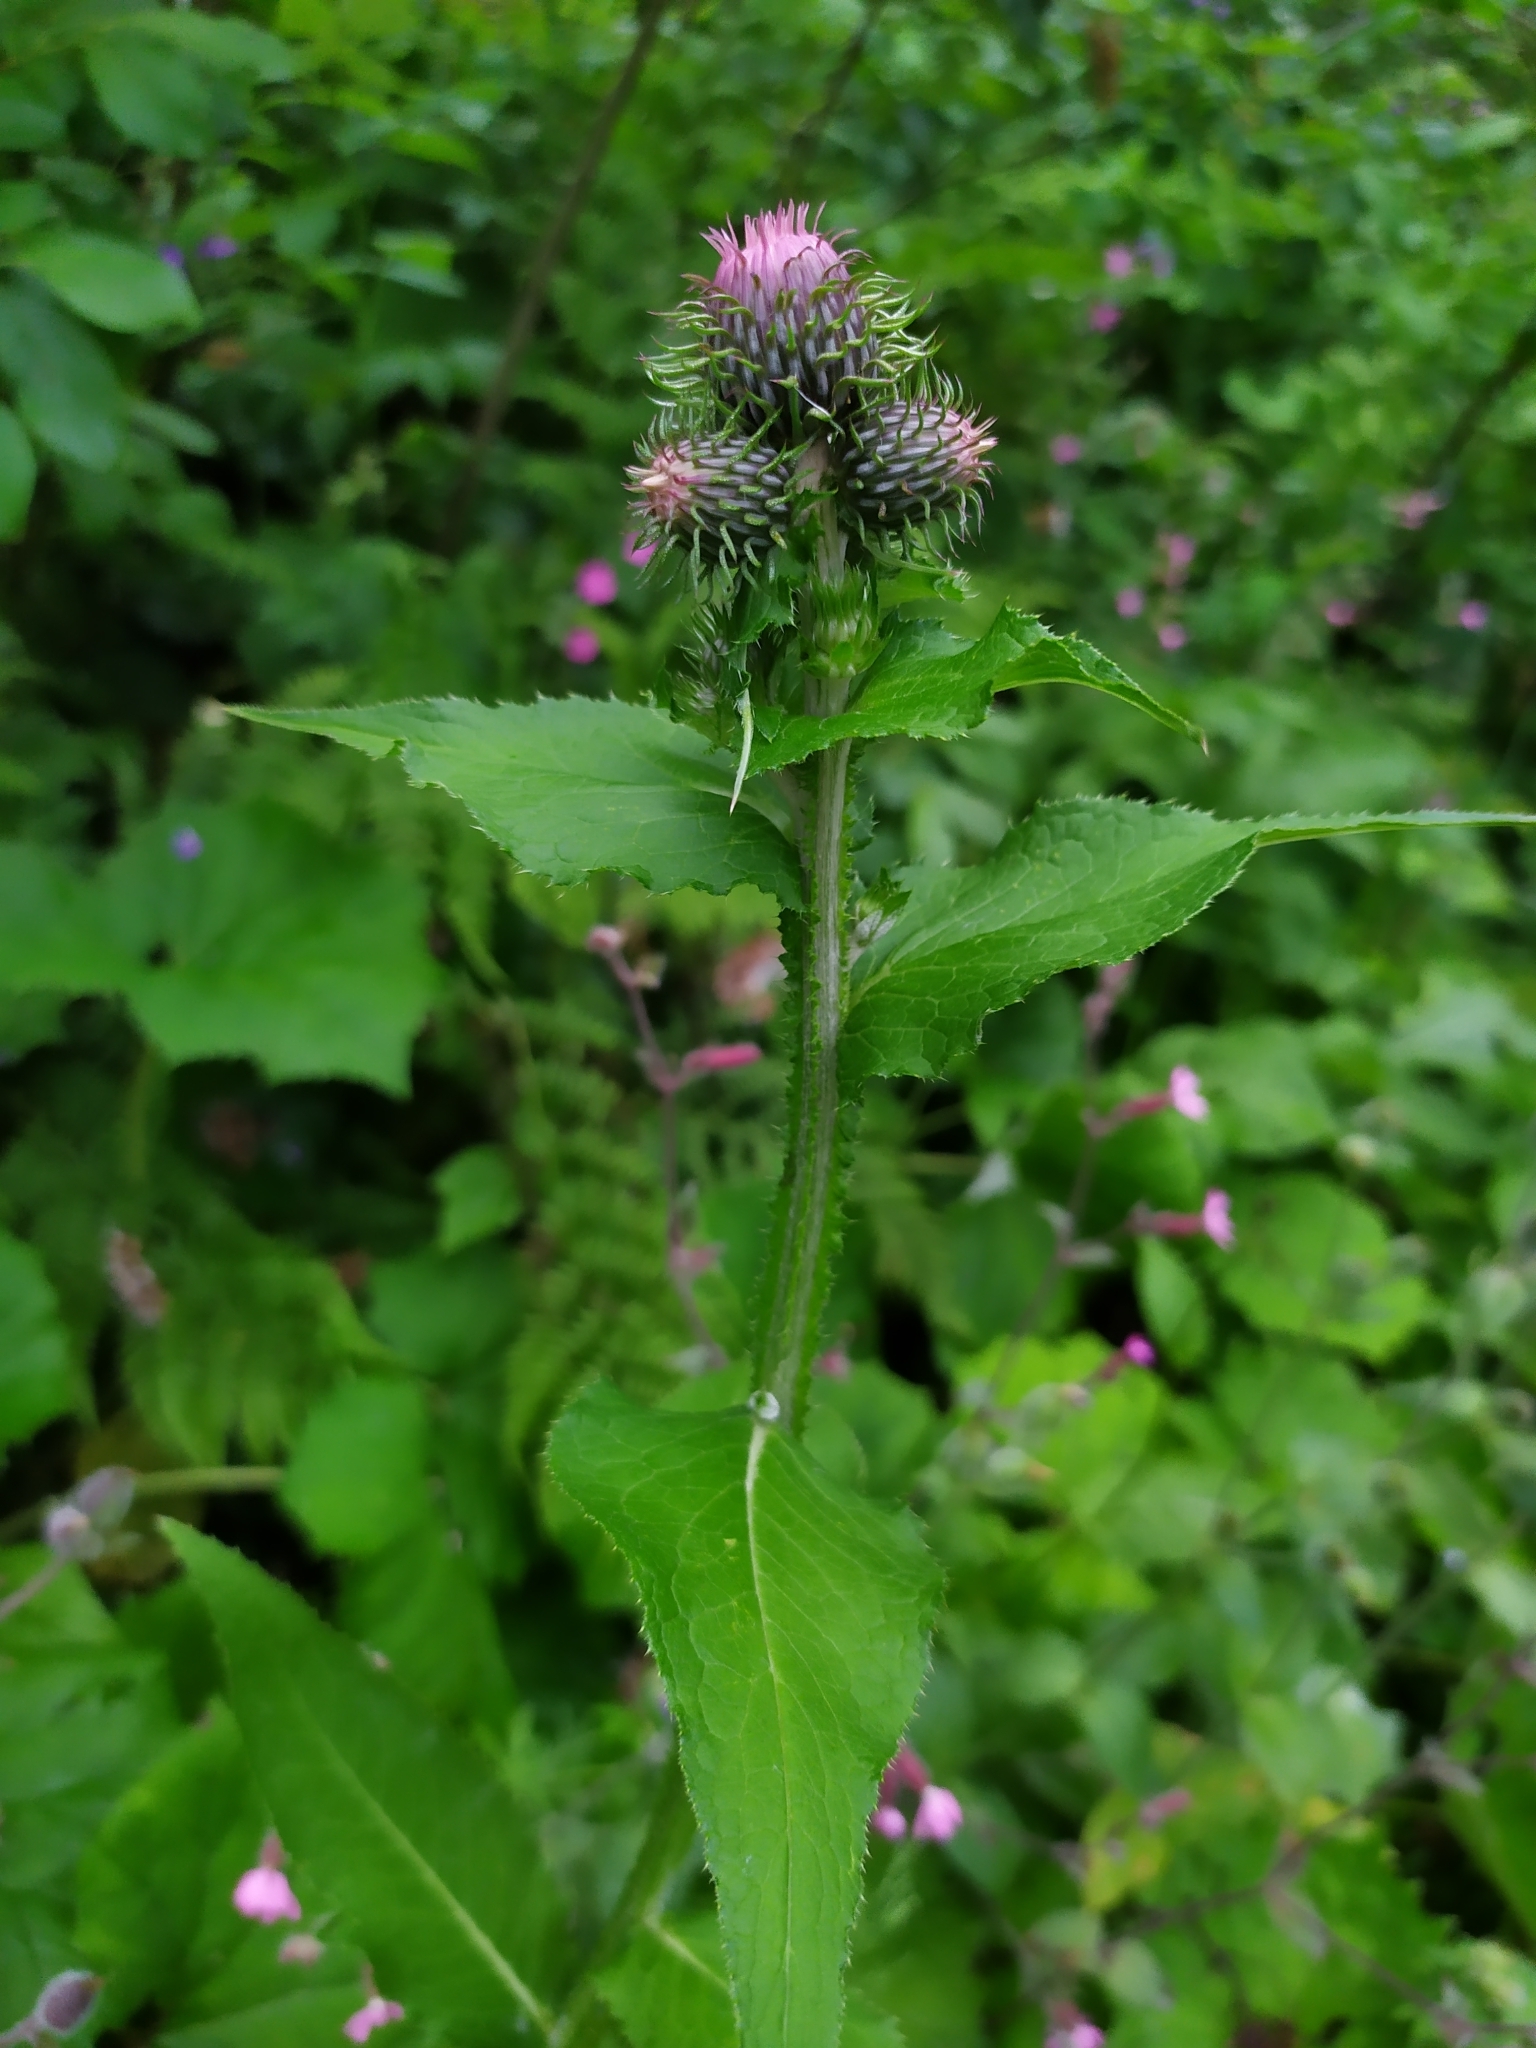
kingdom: Plantae
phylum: Tracheophyta
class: Magnoliopsida
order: Asterales
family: Asteraceae
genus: Carduus
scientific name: Carduus personata
